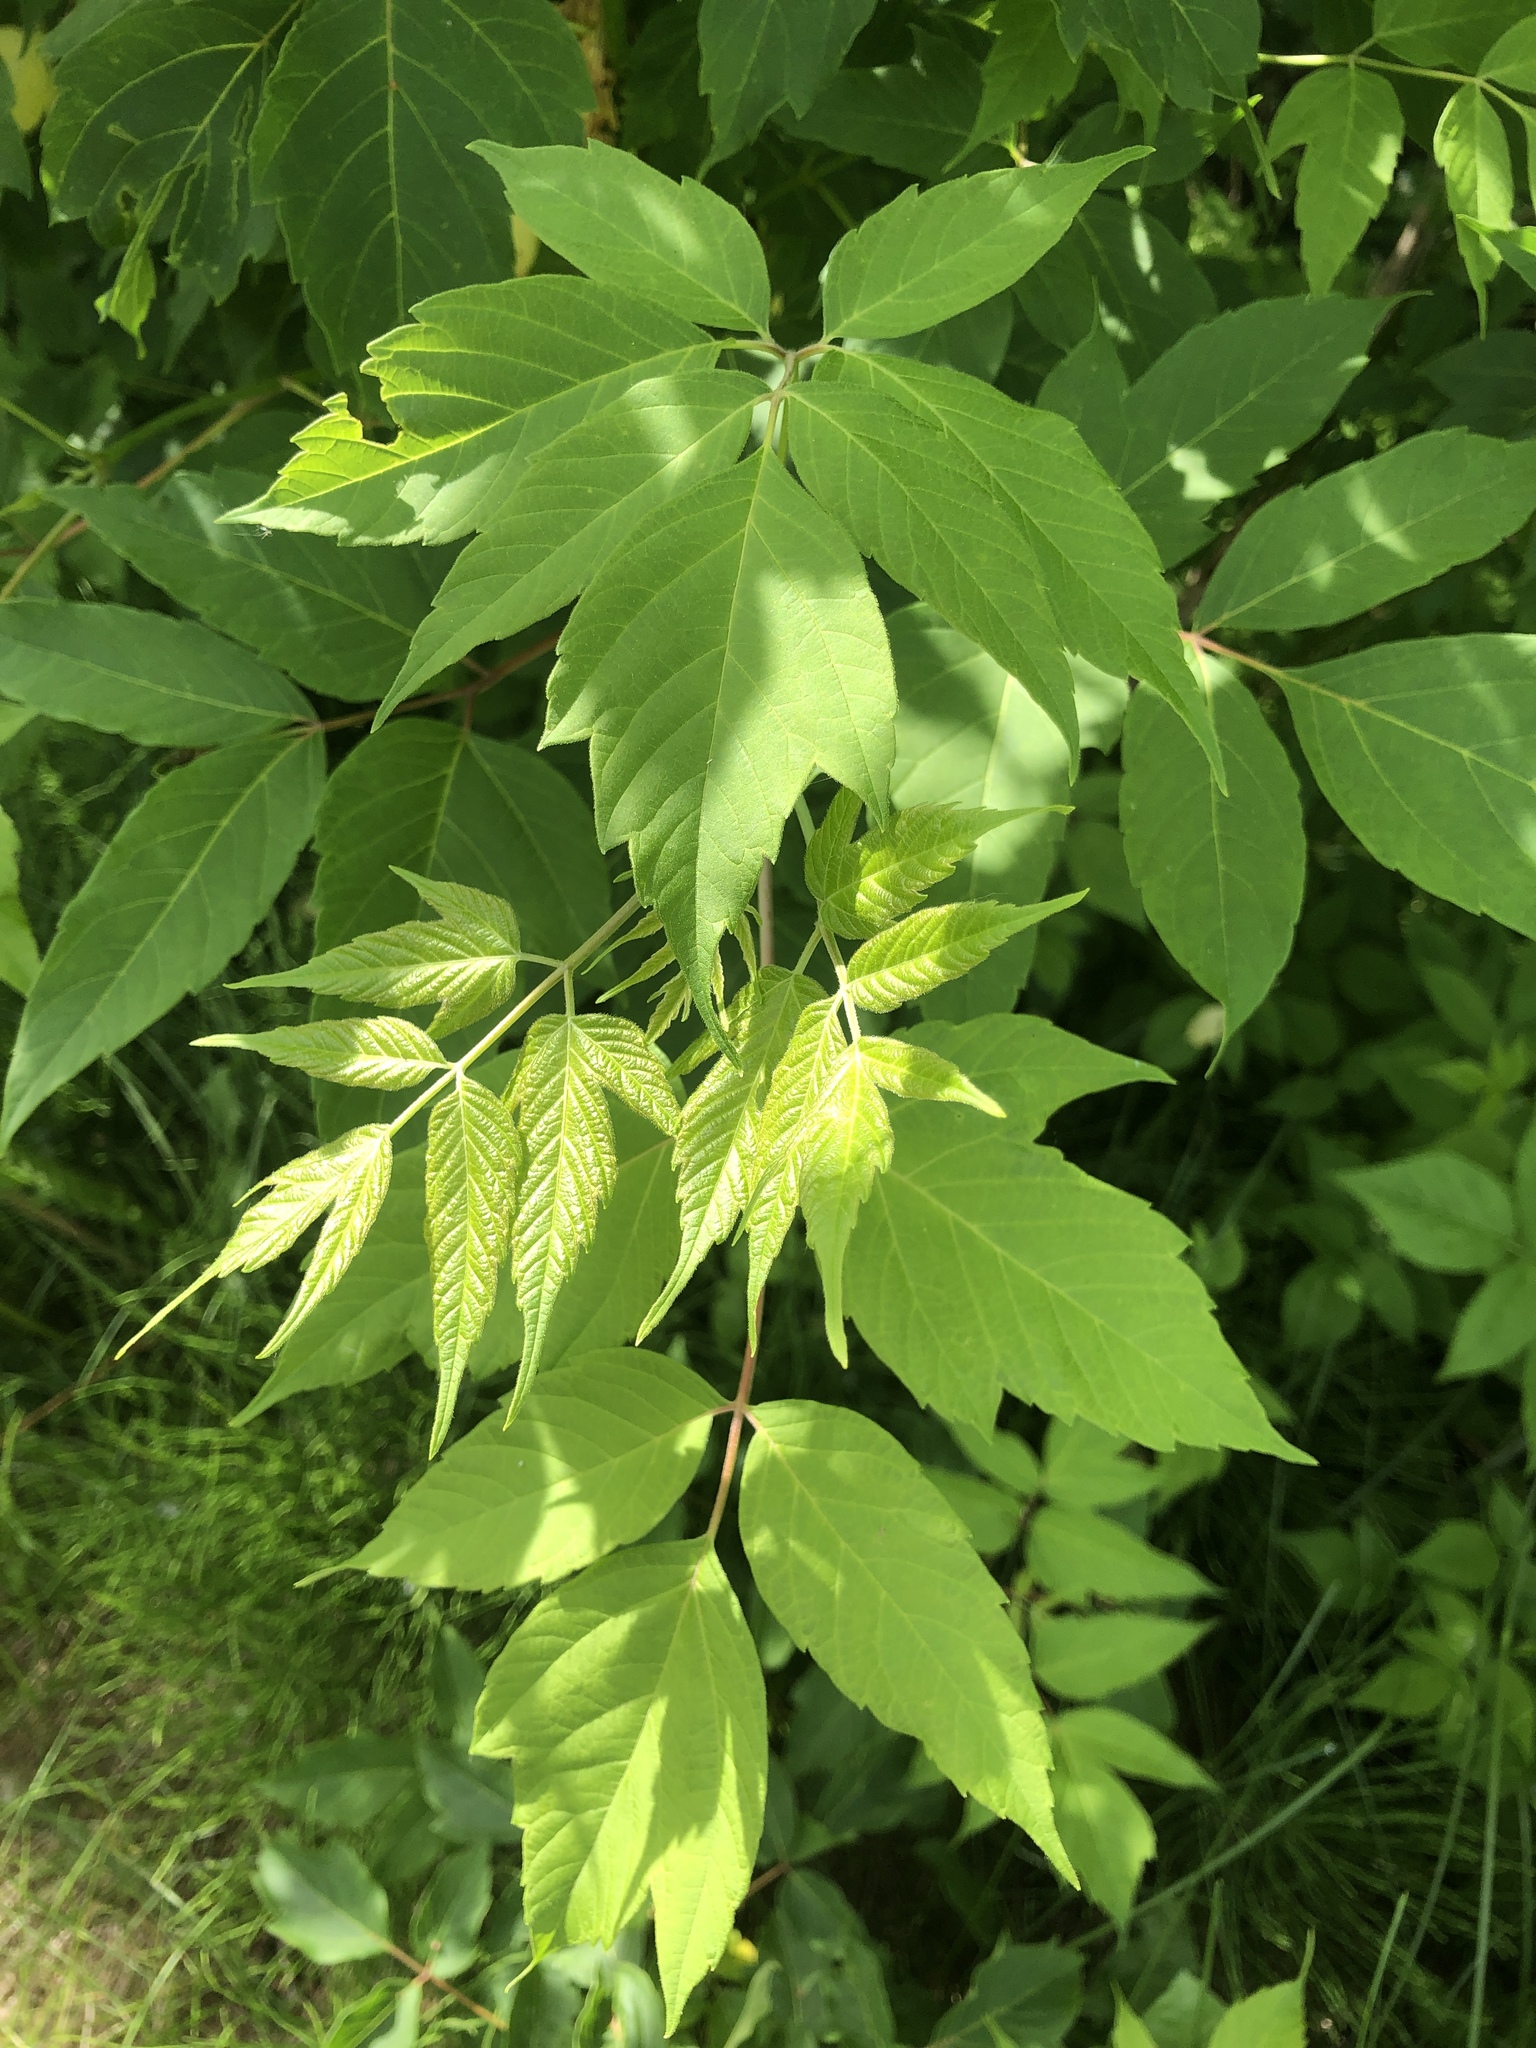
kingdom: Plantae
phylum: Tracheophyta
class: Magnoliopsida
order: Sapindales
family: Sapindaceae
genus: Acer
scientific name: Acer negundo
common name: Ashleaf maple
